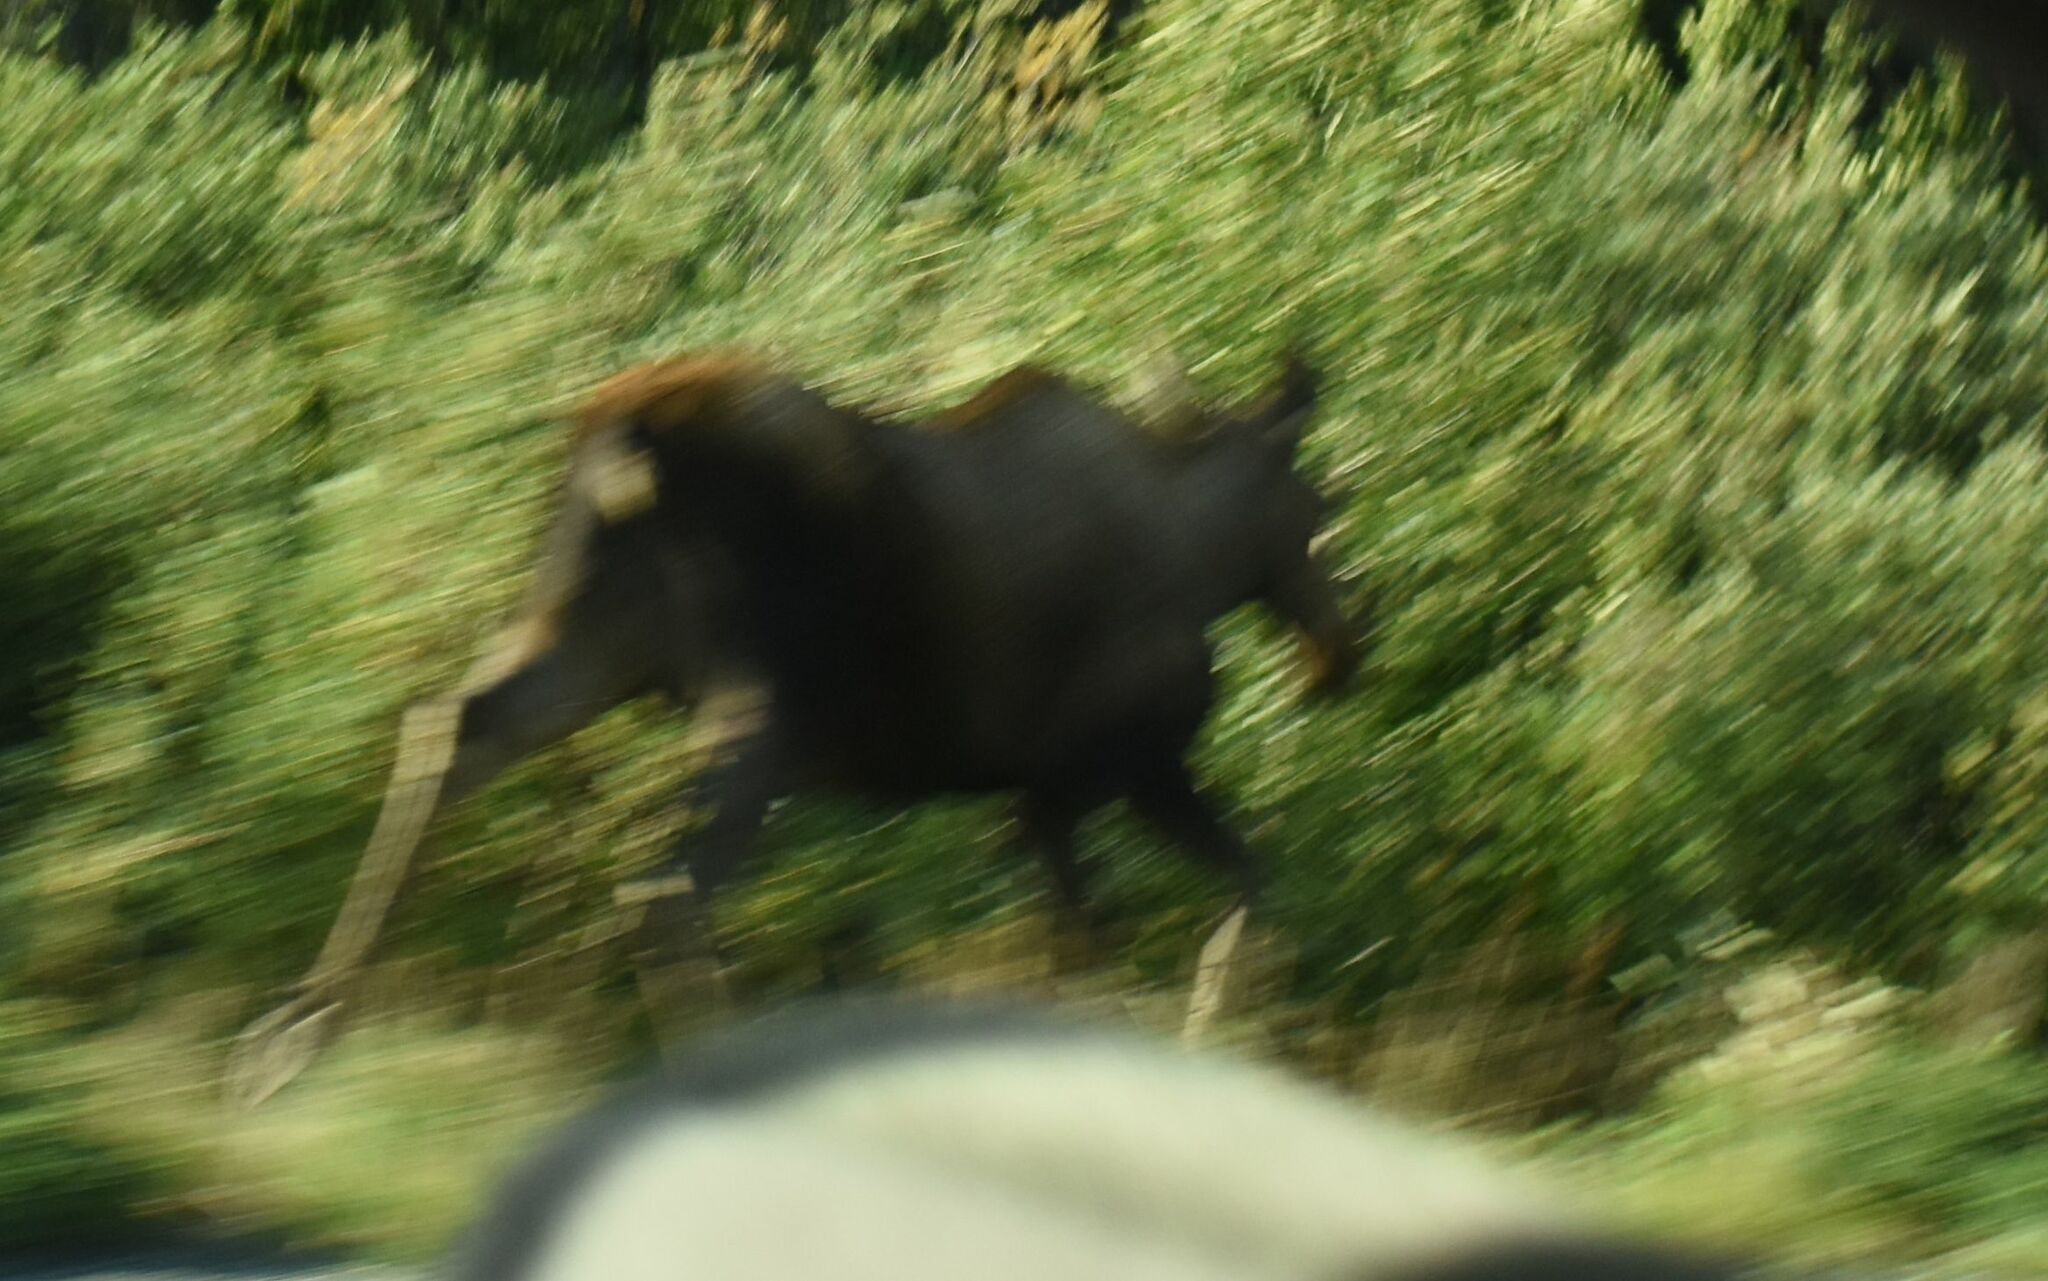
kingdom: Animalia
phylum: Chordata
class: Mammalia
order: Artiodactyla
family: Cervidae
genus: Alces
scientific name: Alces alces
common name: Moose
